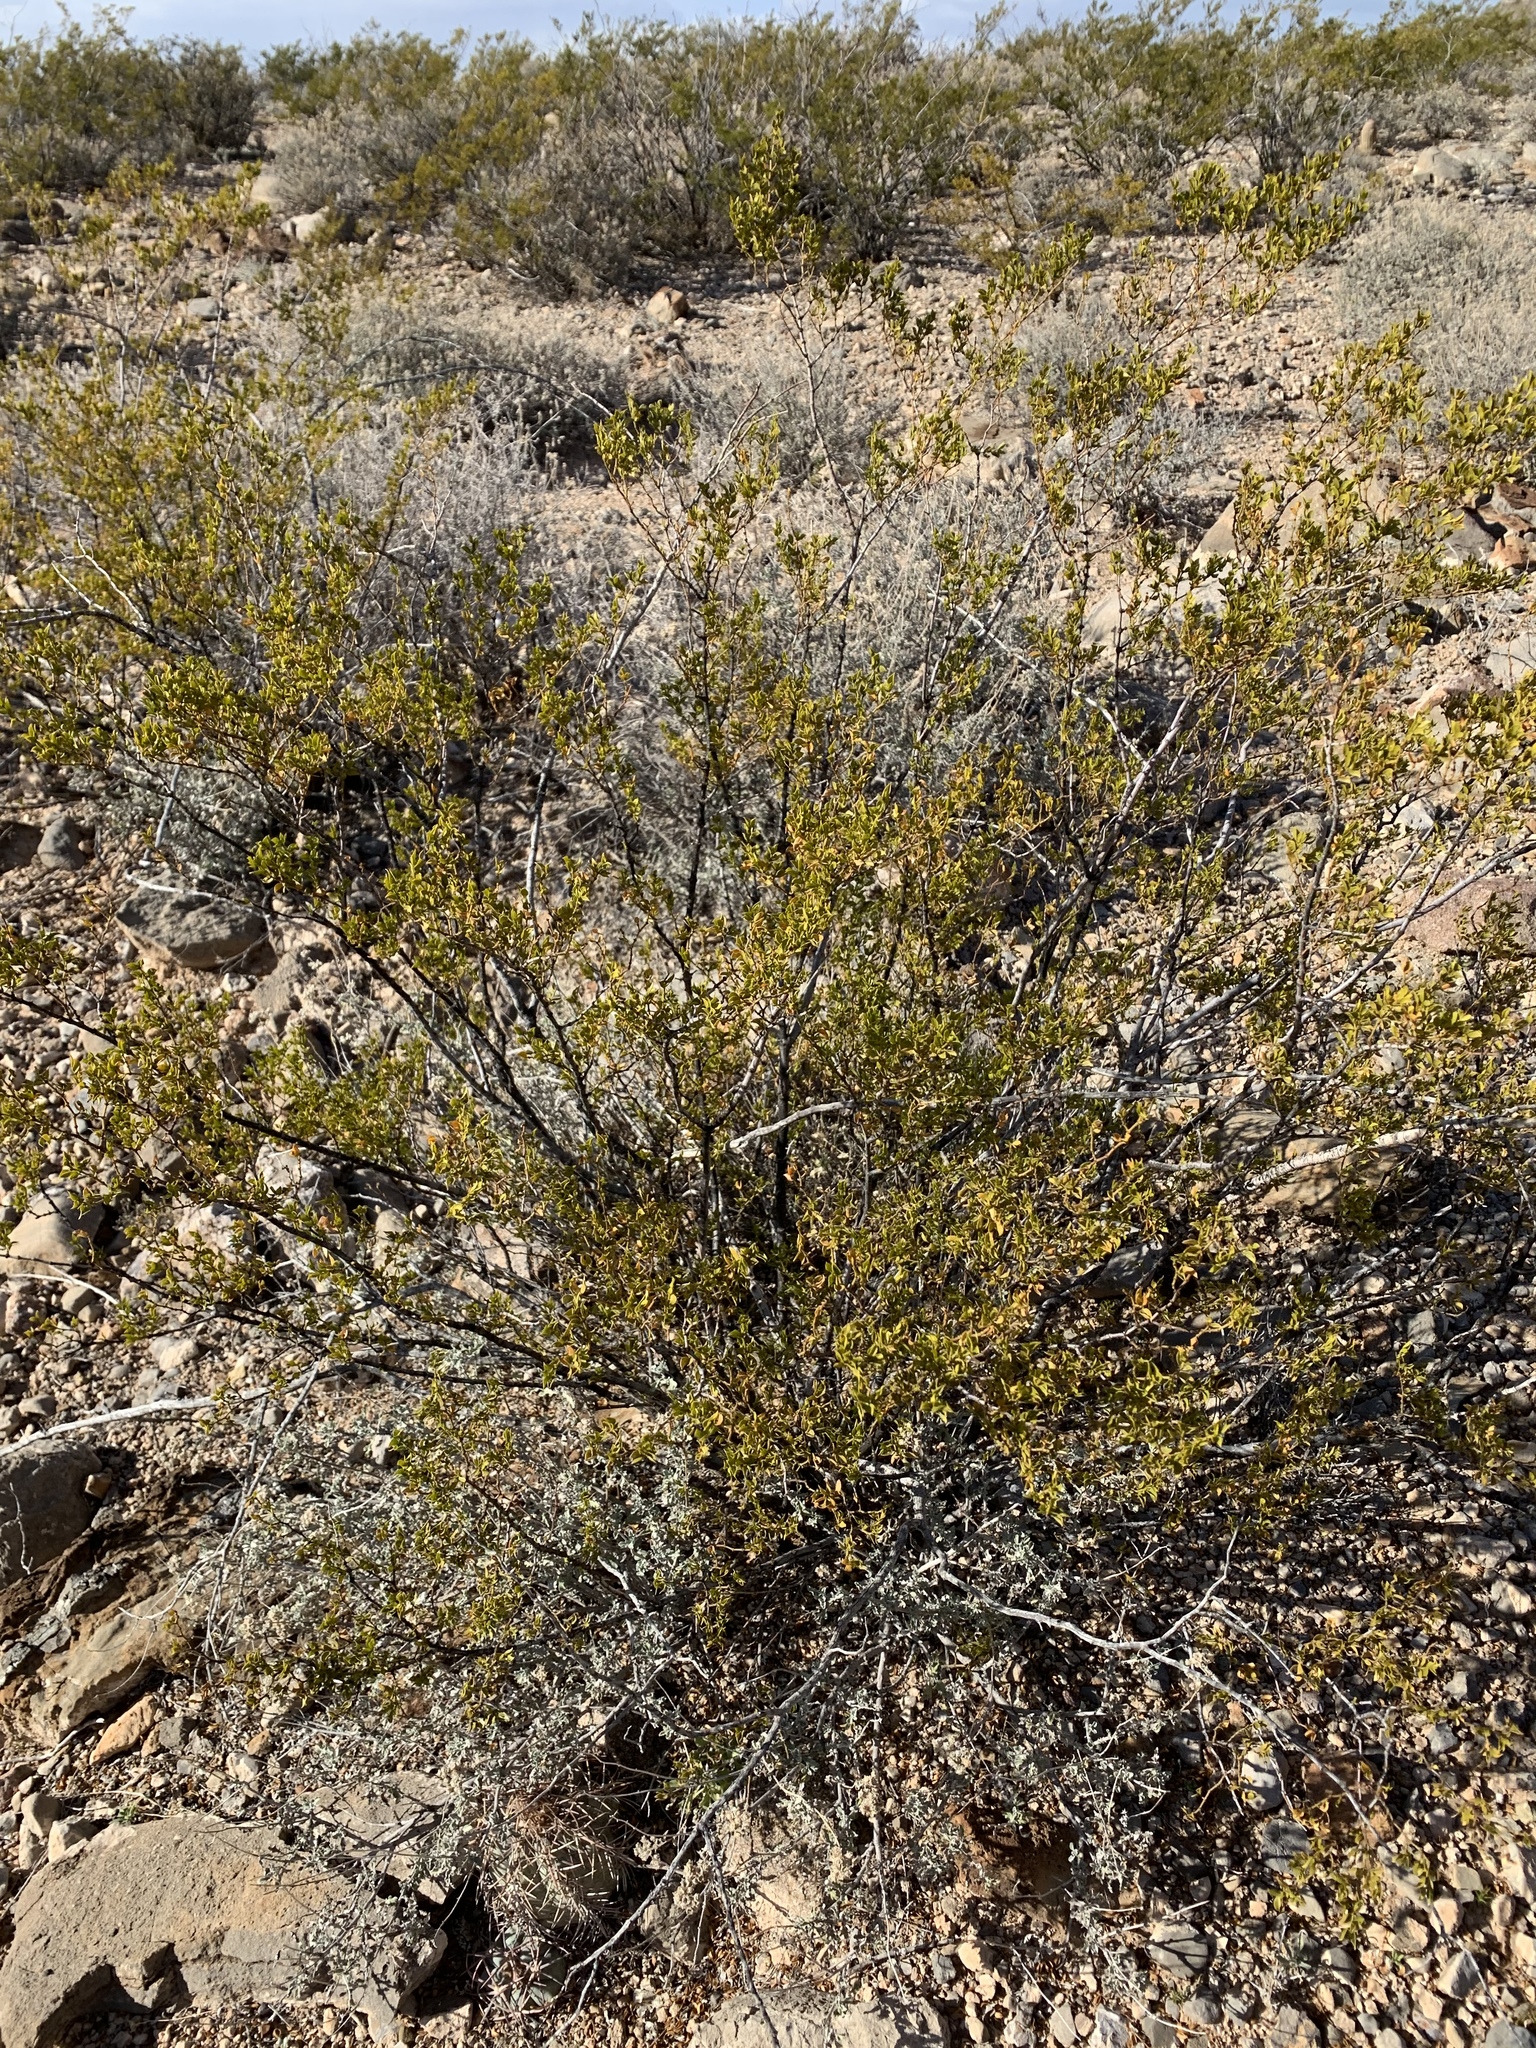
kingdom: Plantae
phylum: Tracheophyta
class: Magnoliopsida
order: Zygophyllales
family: Zygophyllaceae
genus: Larrea
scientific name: Larrea tridentata
